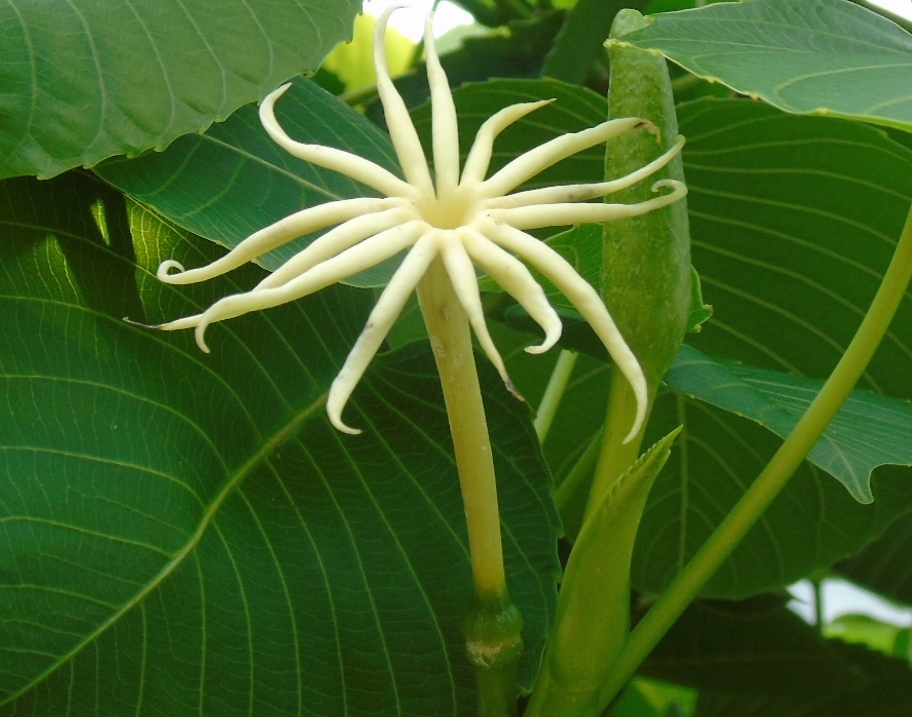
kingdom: Plantae
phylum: Tracheophyta
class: Magnoliopsida
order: Malpighiales
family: Euphorbiaceae
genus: Hura
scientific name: Hura polyandra
